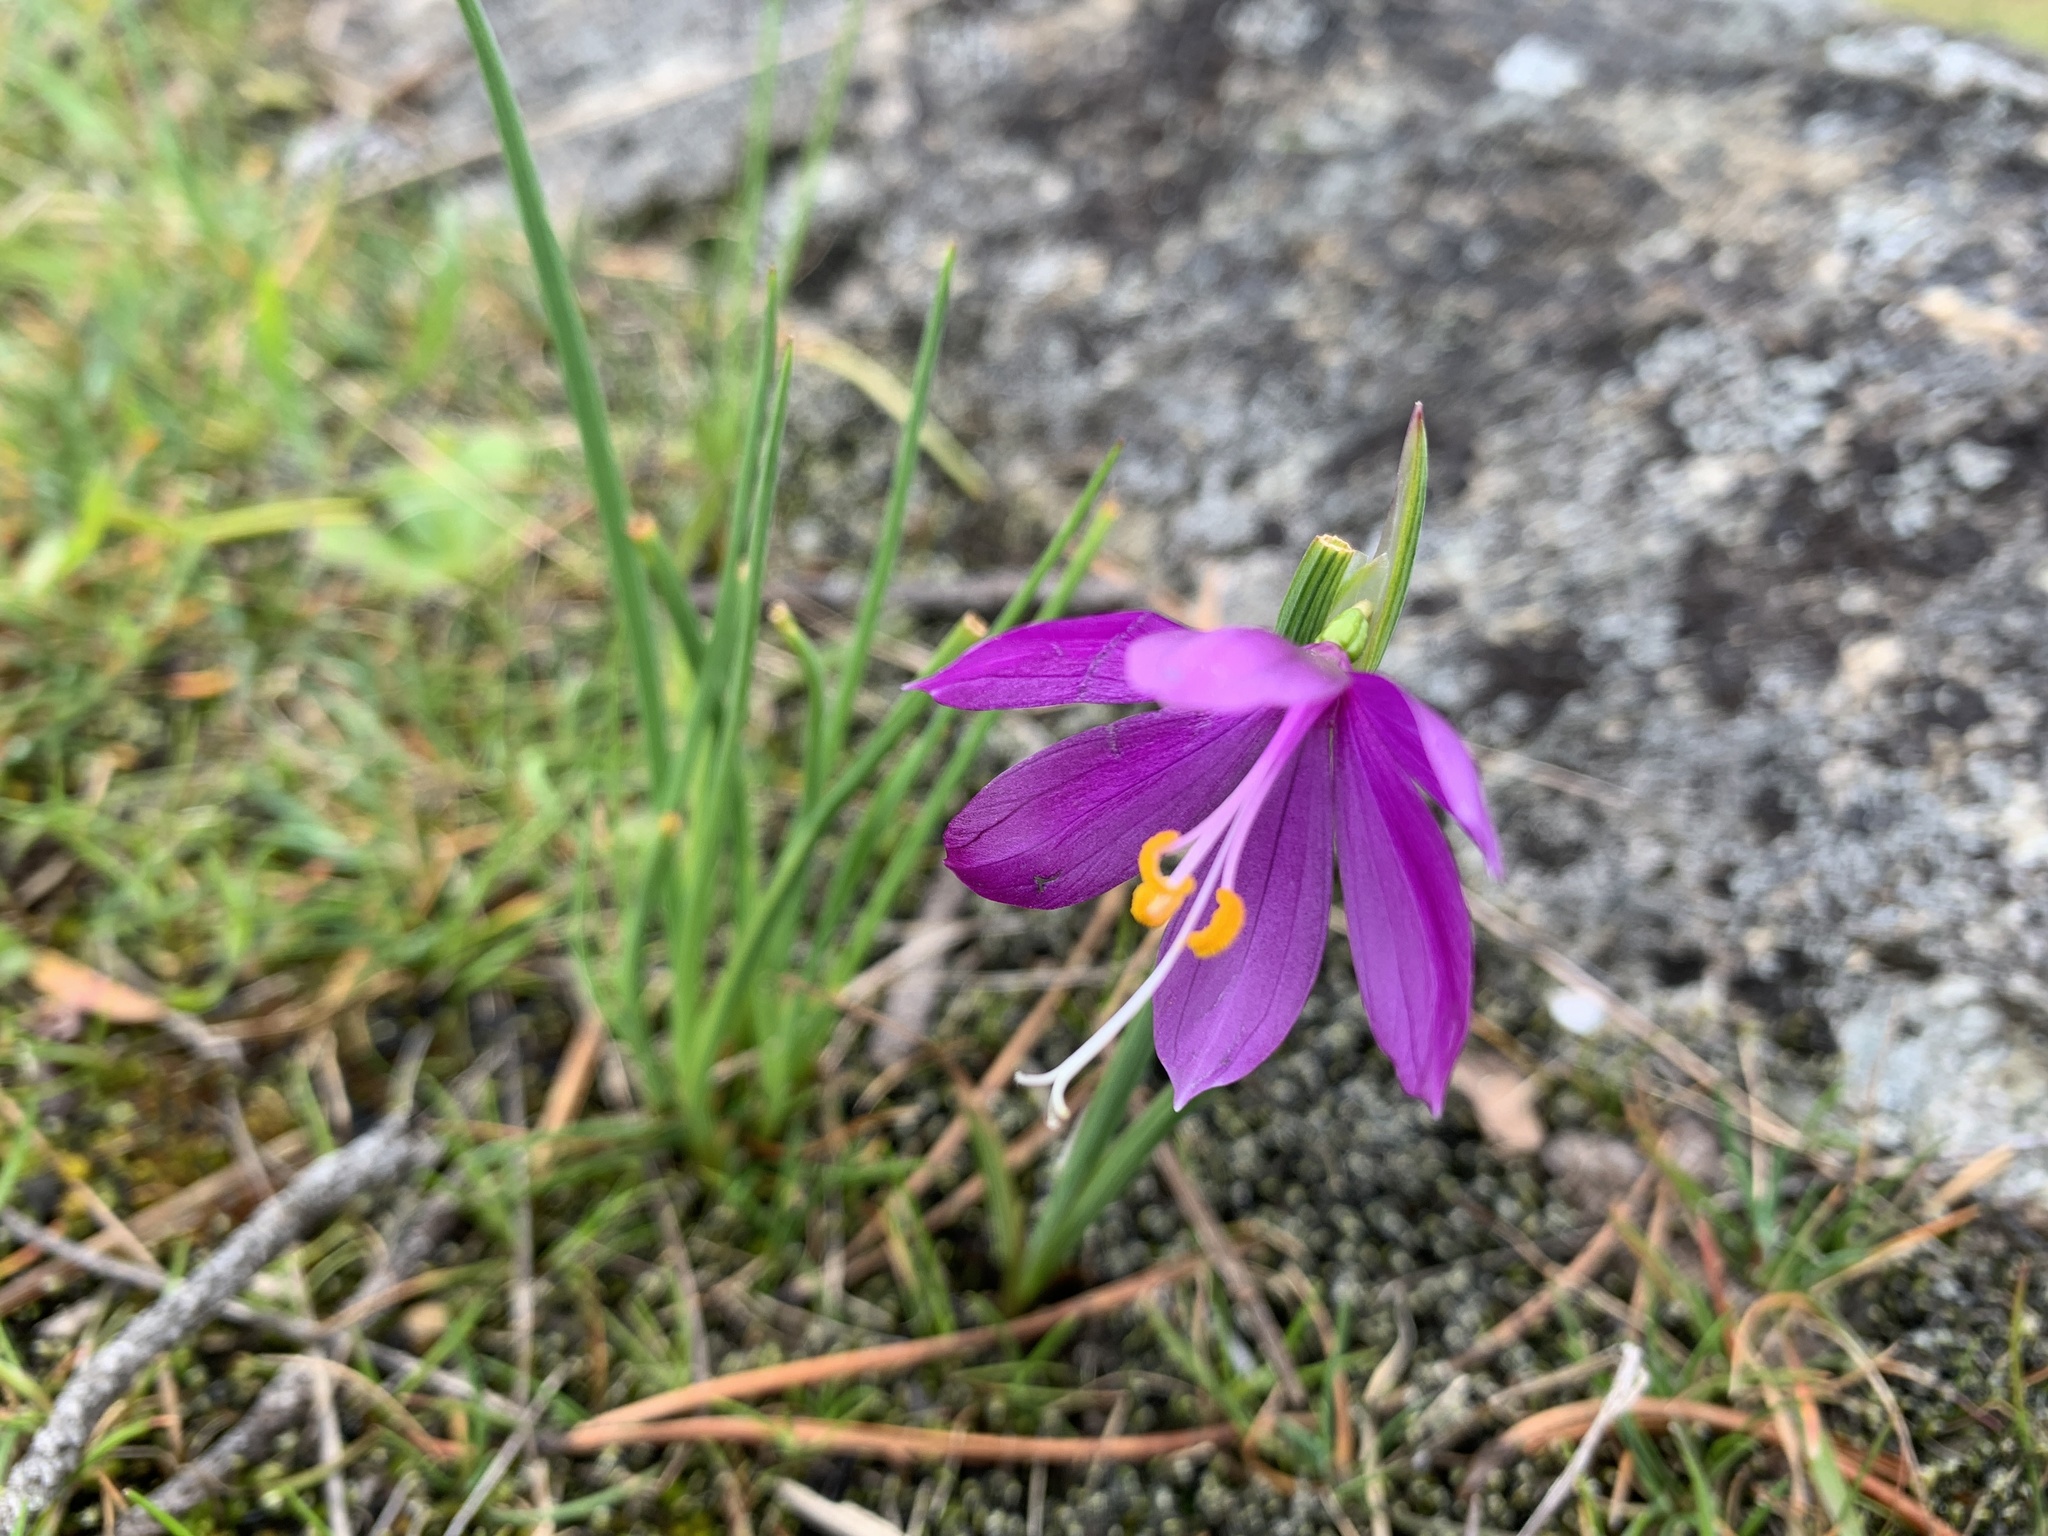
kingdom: Plantae
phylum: Tracheophyta
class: Liliopsida
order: Asparagales
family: Iridaceae
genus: Olsynium
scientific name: Olsynium douglasii
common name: Douglas' grasswidow
